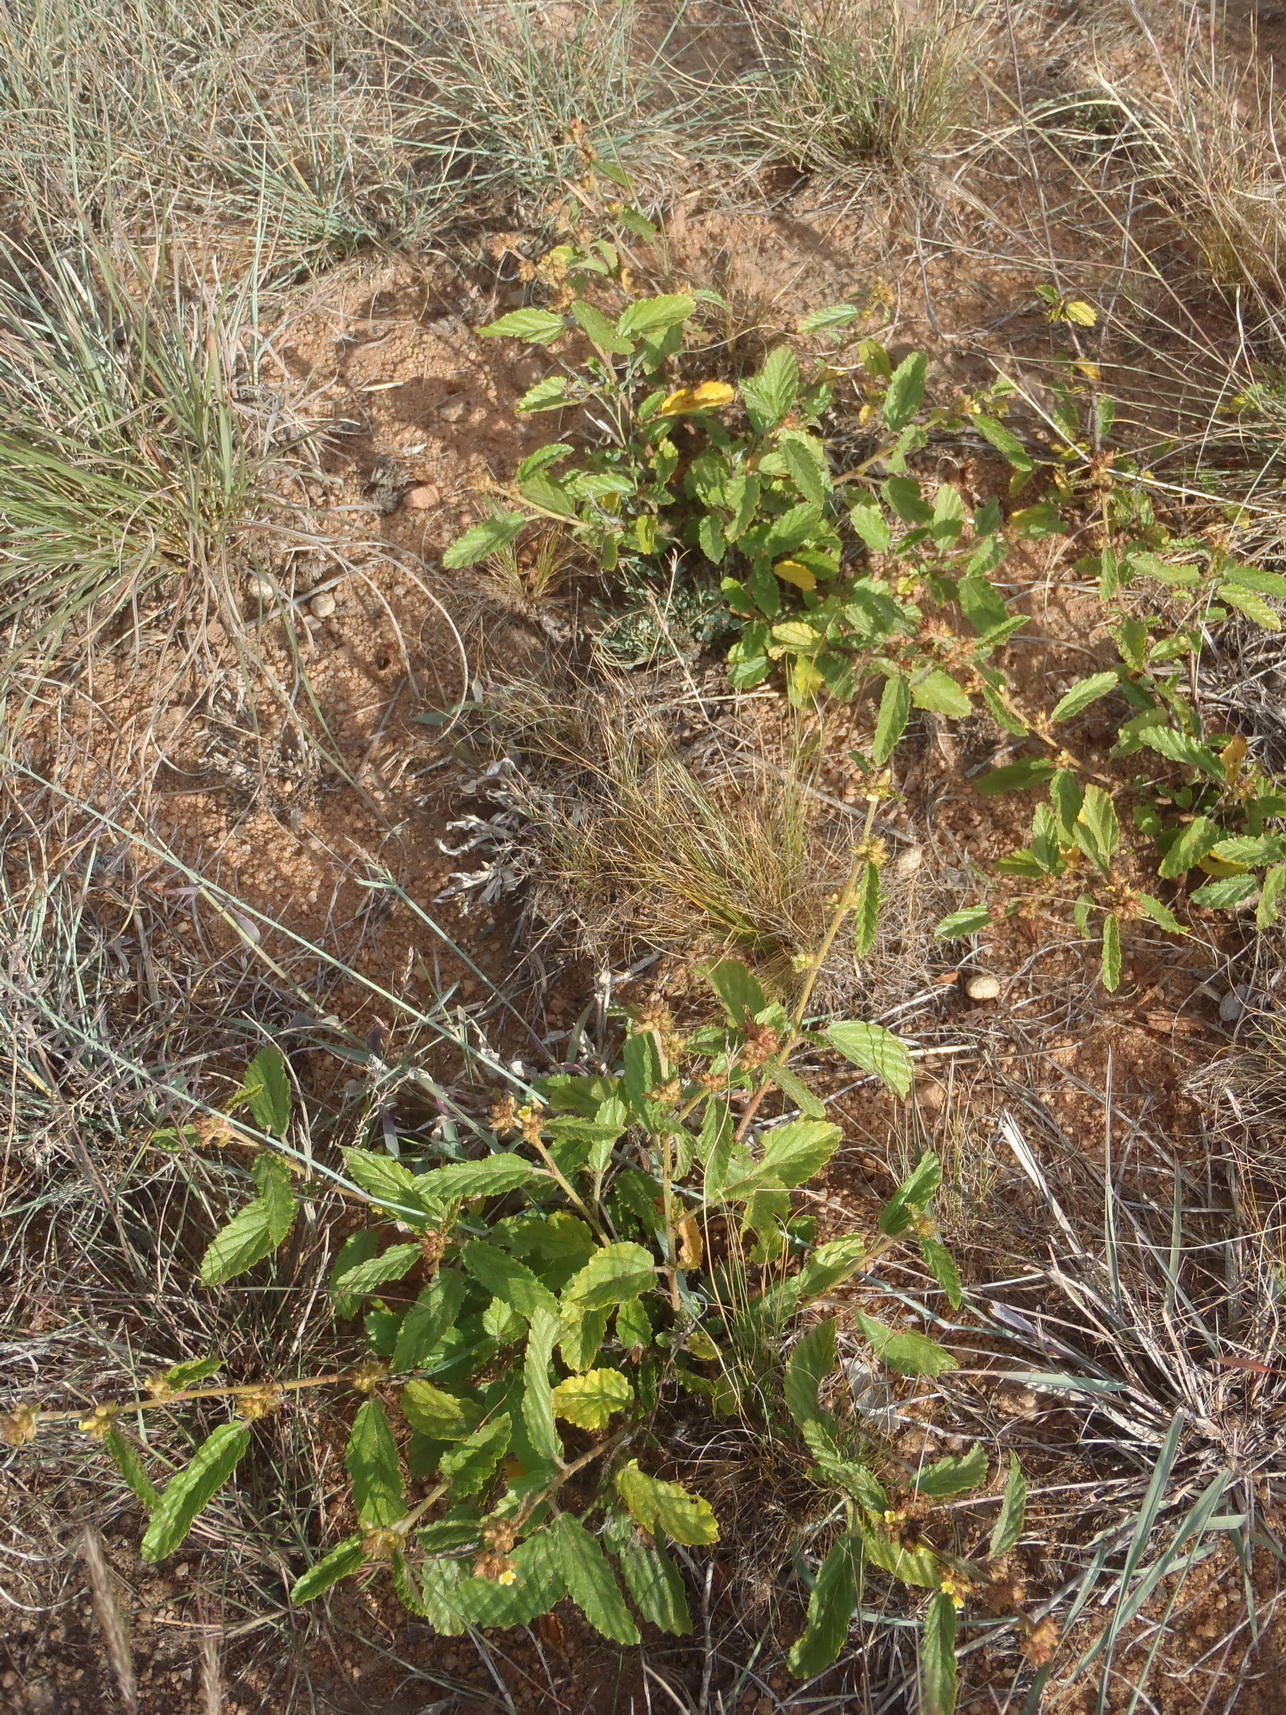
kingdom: Plantae
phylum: Tracheophyta
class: Magnoliopsida
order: Malvales
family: Malvaceae
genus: Waltheria
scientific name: Waltheria indica
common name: Leather-coat
